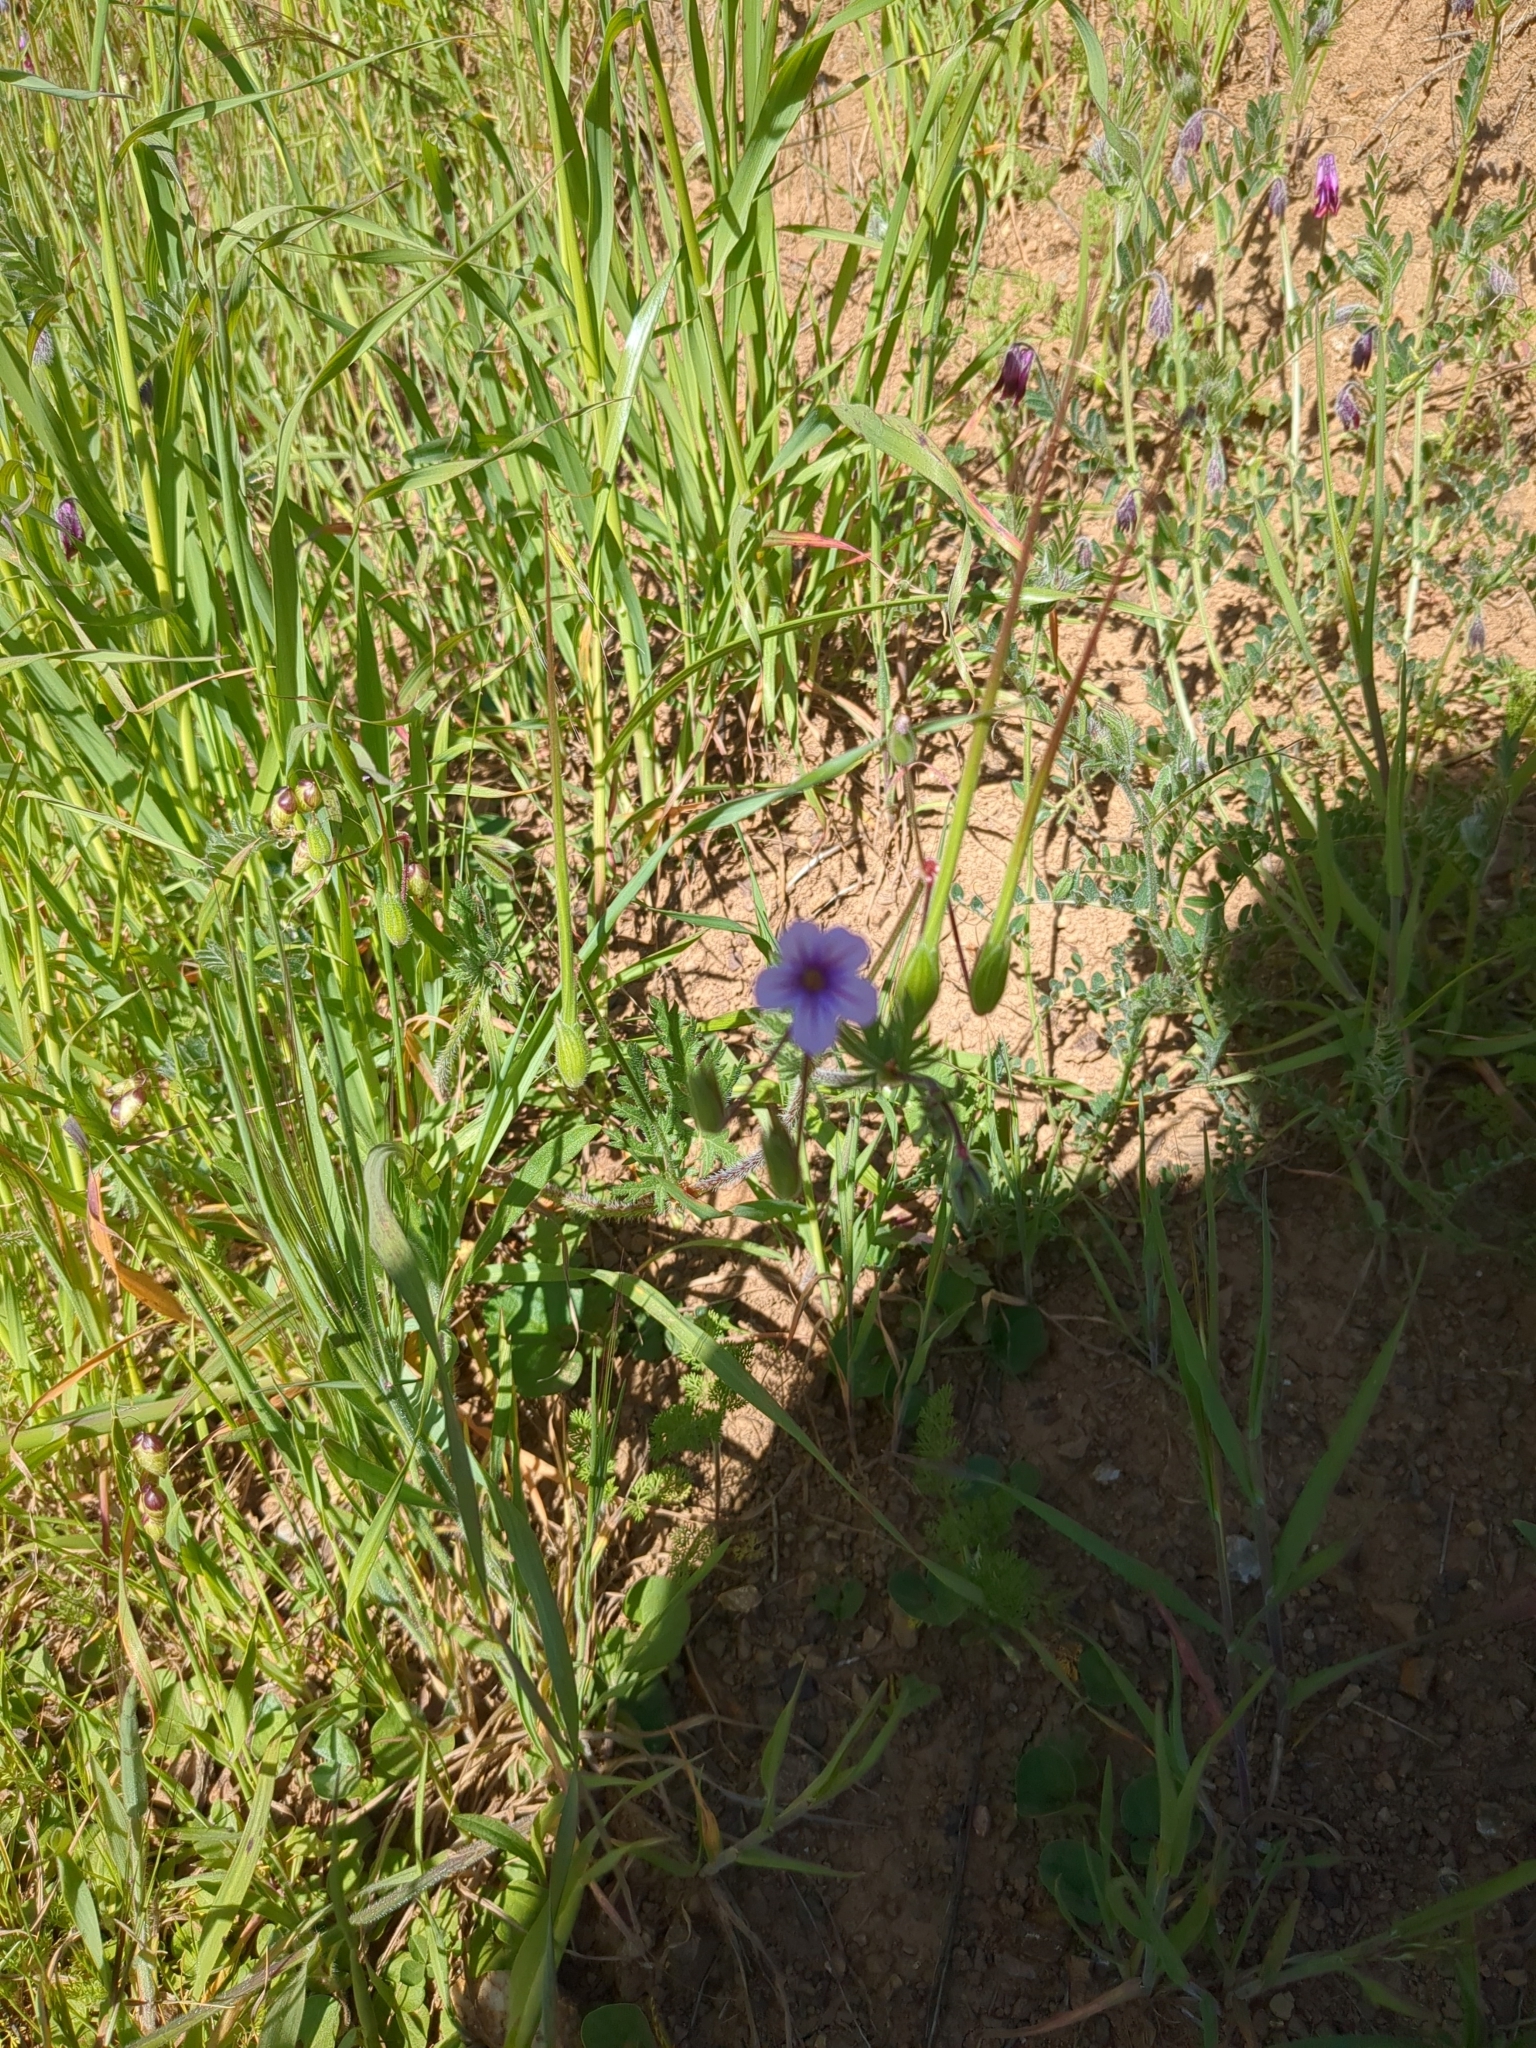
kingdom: Plantae
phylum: Tracheophyta
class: Magnoliopsida
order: Geraniales
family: Geraniaceae
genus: Erodium
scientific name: Erodium botrys
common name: Mediterranean stork's-bill
